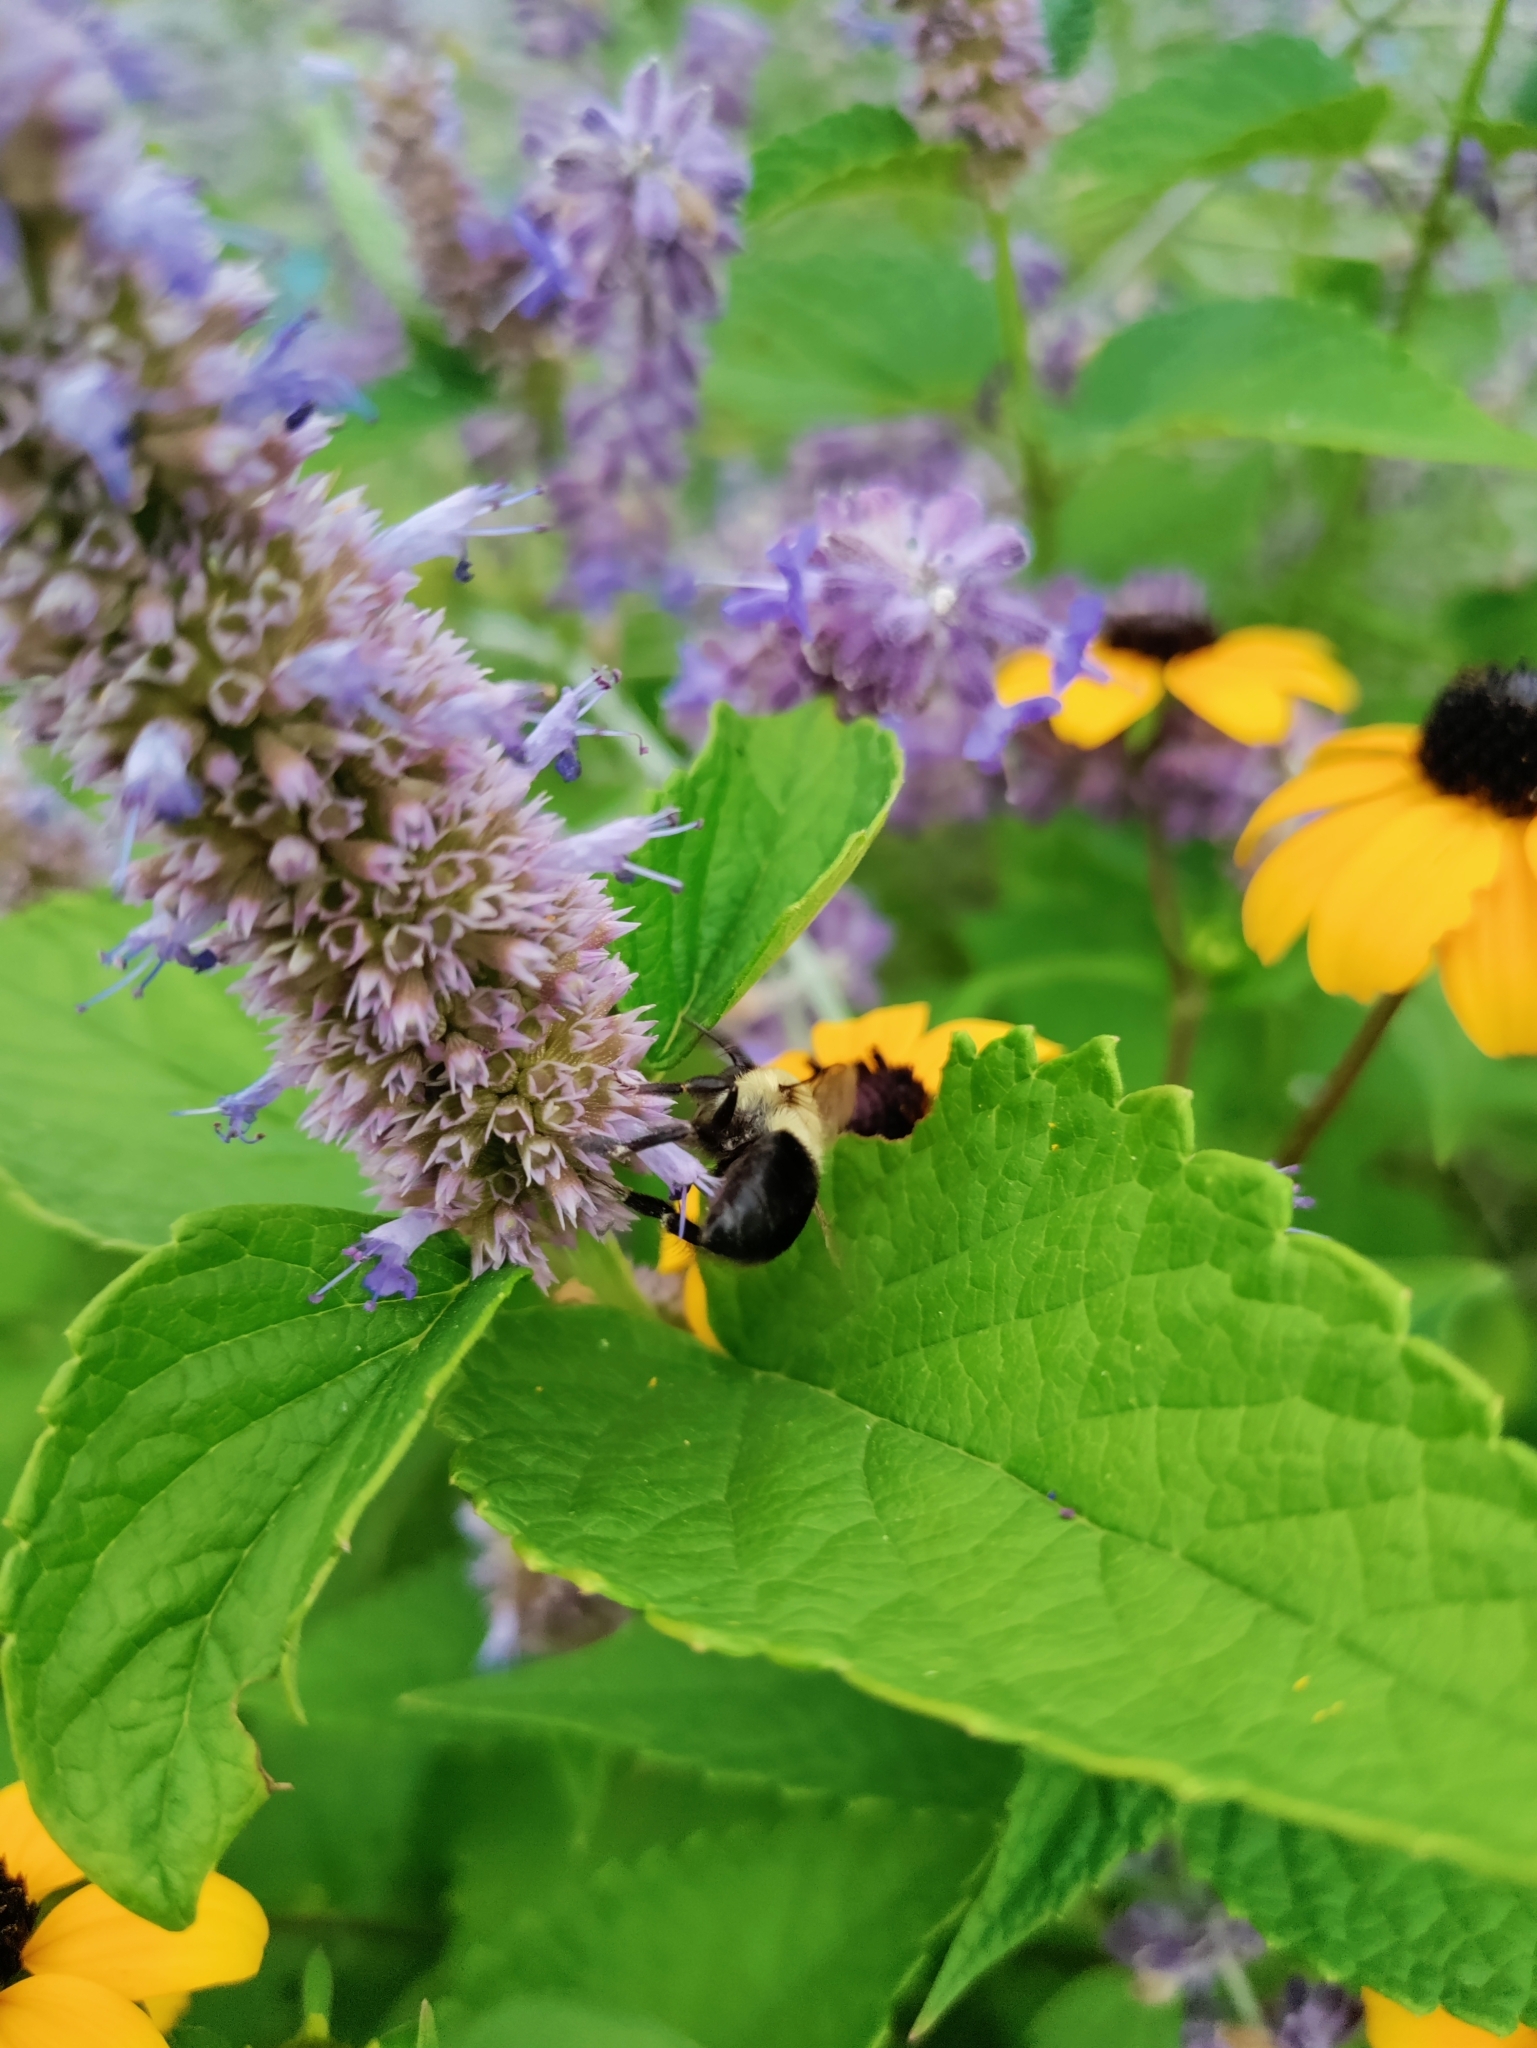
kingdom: Animalia
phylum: Arthropoda
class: Insecta
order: Hymenoptera
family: Apidae
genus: Bombus
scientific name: Bombus impatiens
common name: Common eastern bumble bee
